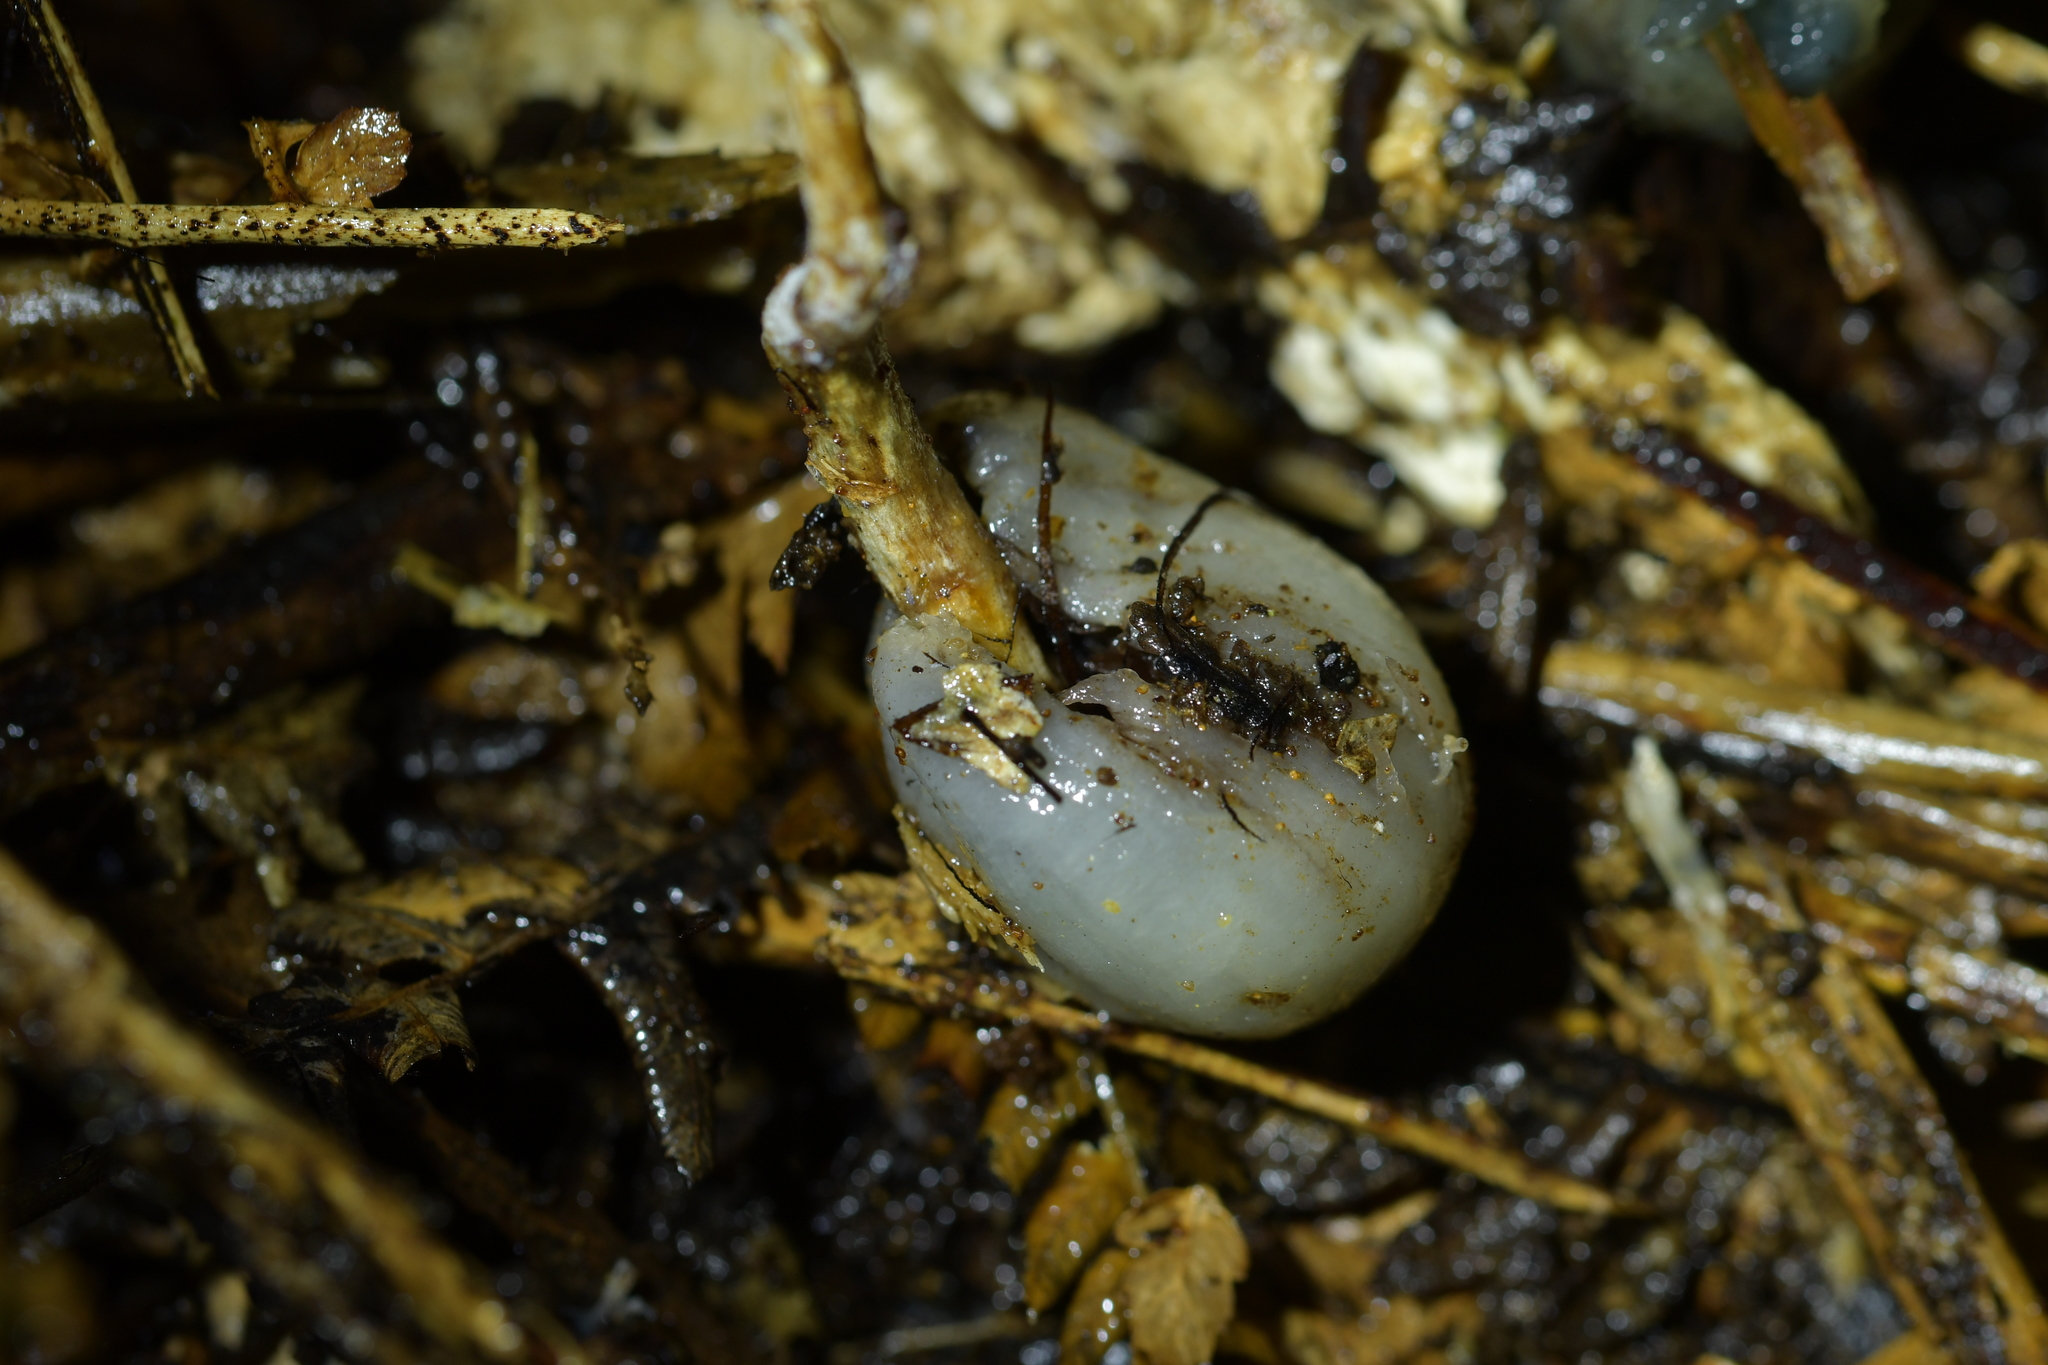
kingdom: Fungi
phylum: Basidiomycota
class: Agaricomycetes
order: Agaricales
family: Hymenogastraceae
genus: Psilocybe
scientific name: Psilocybe weraroa
